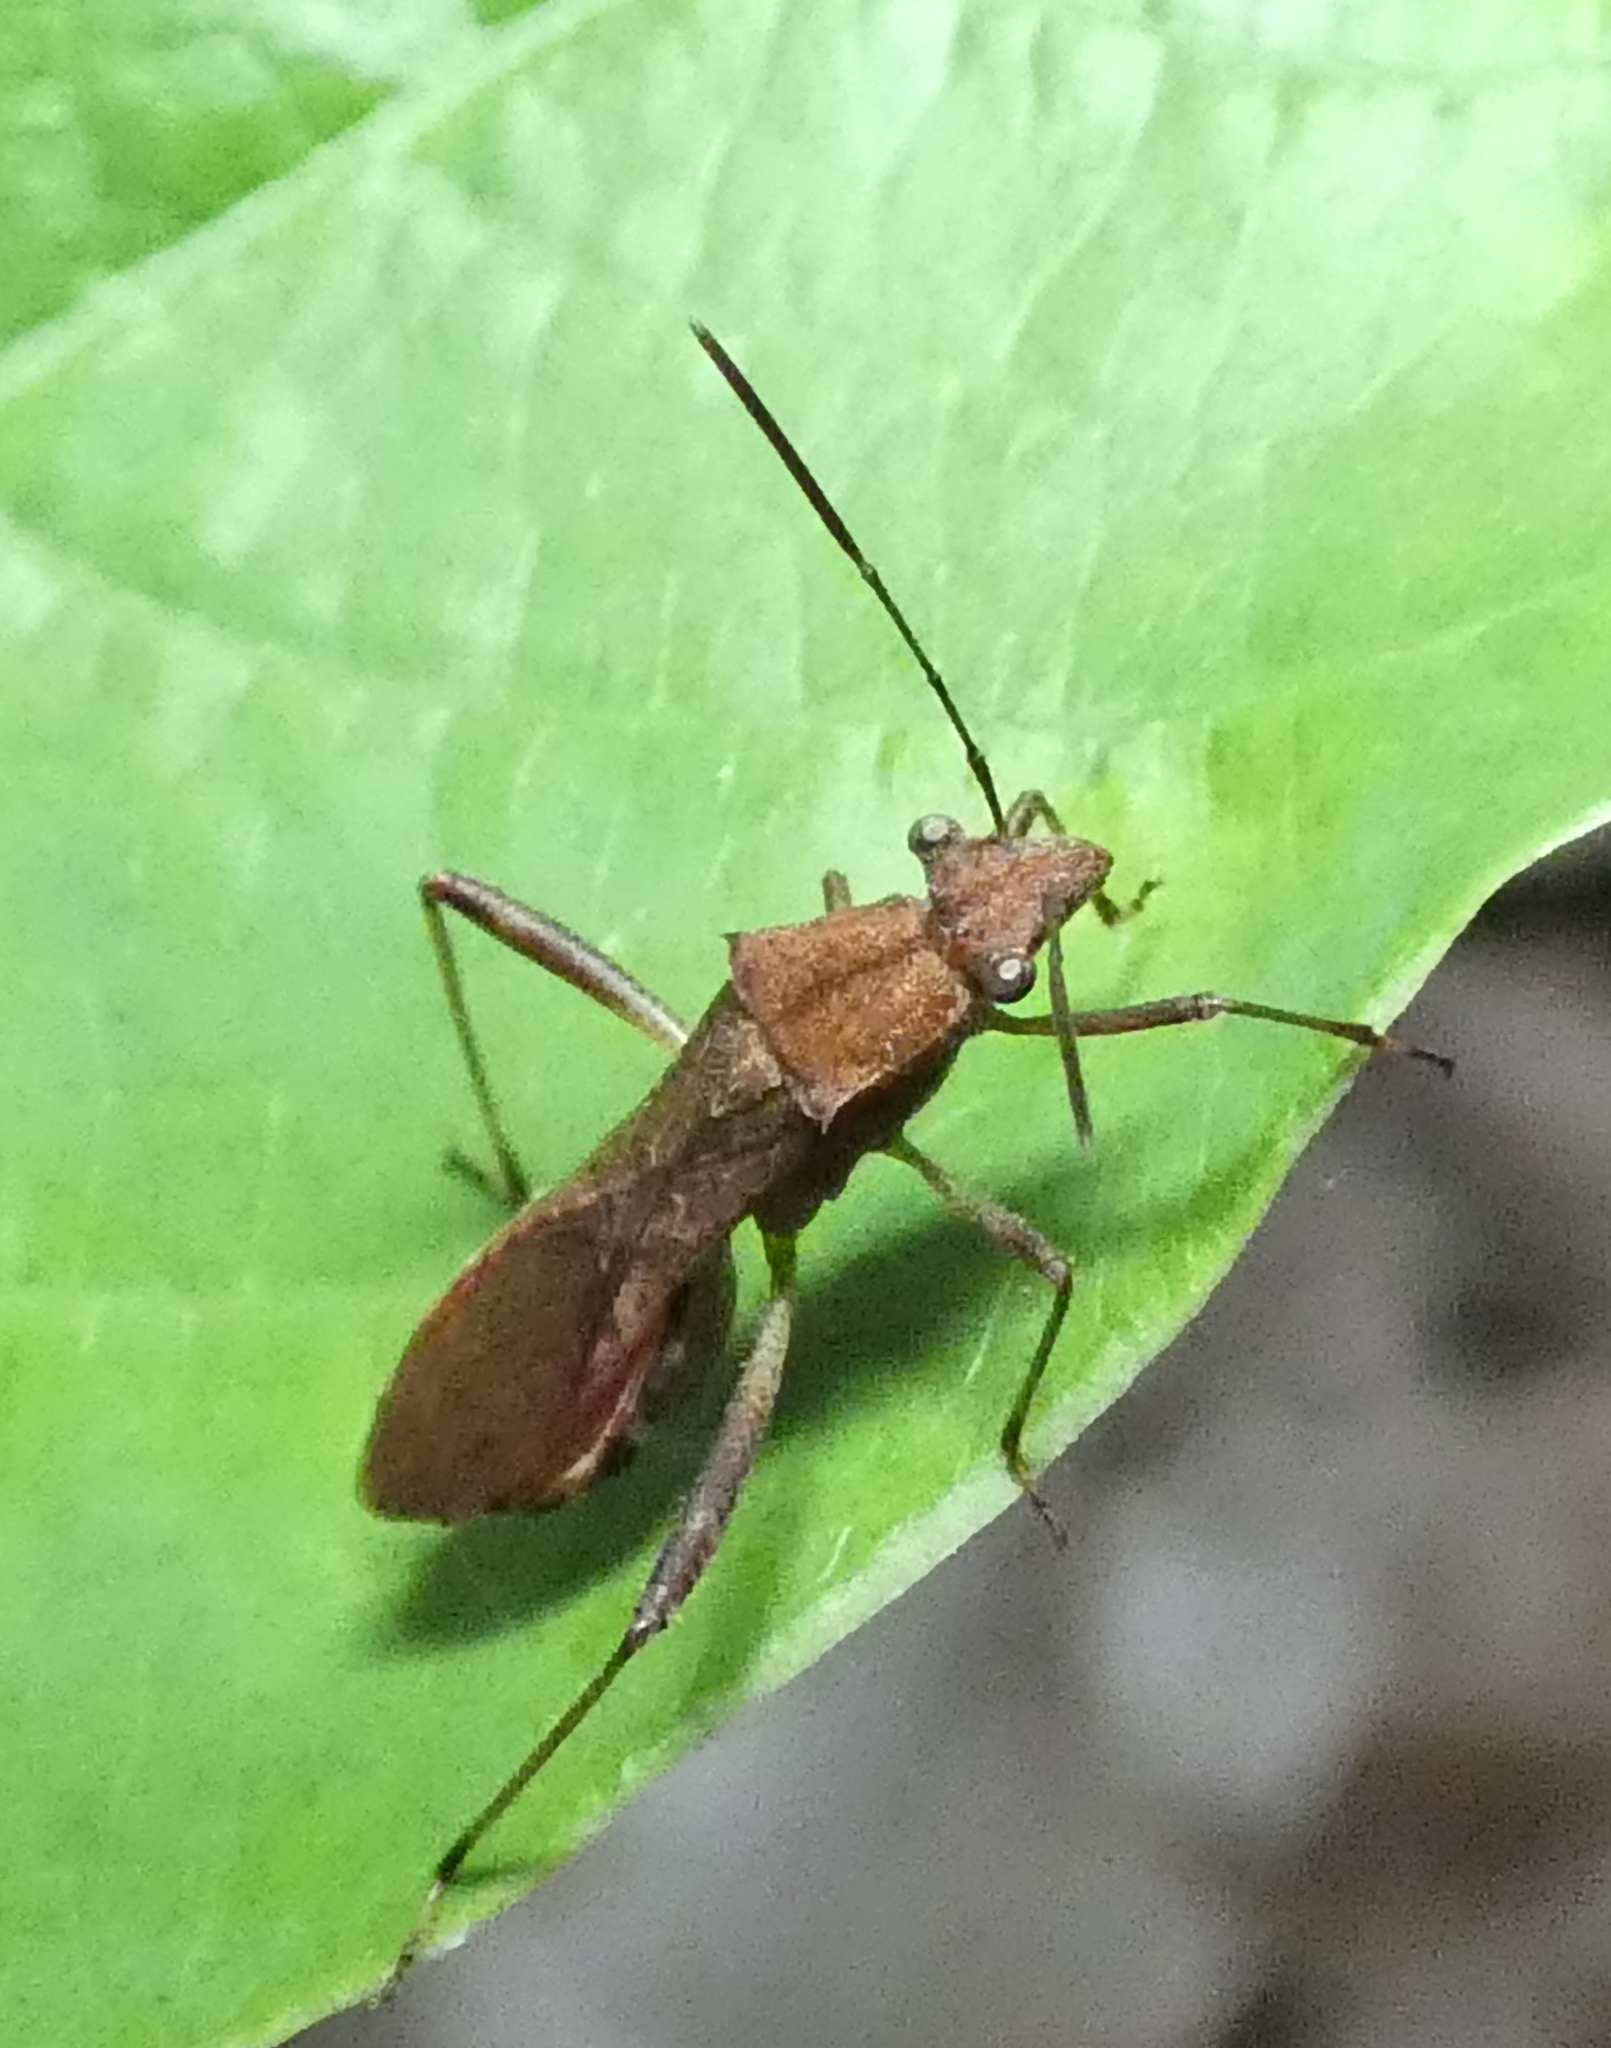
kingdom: Animalia
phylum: Arthropoda
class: Insecta
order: Hemiptera
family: Alydidae
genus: Neomegalotomus
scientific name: Neomegalotomus parvus
